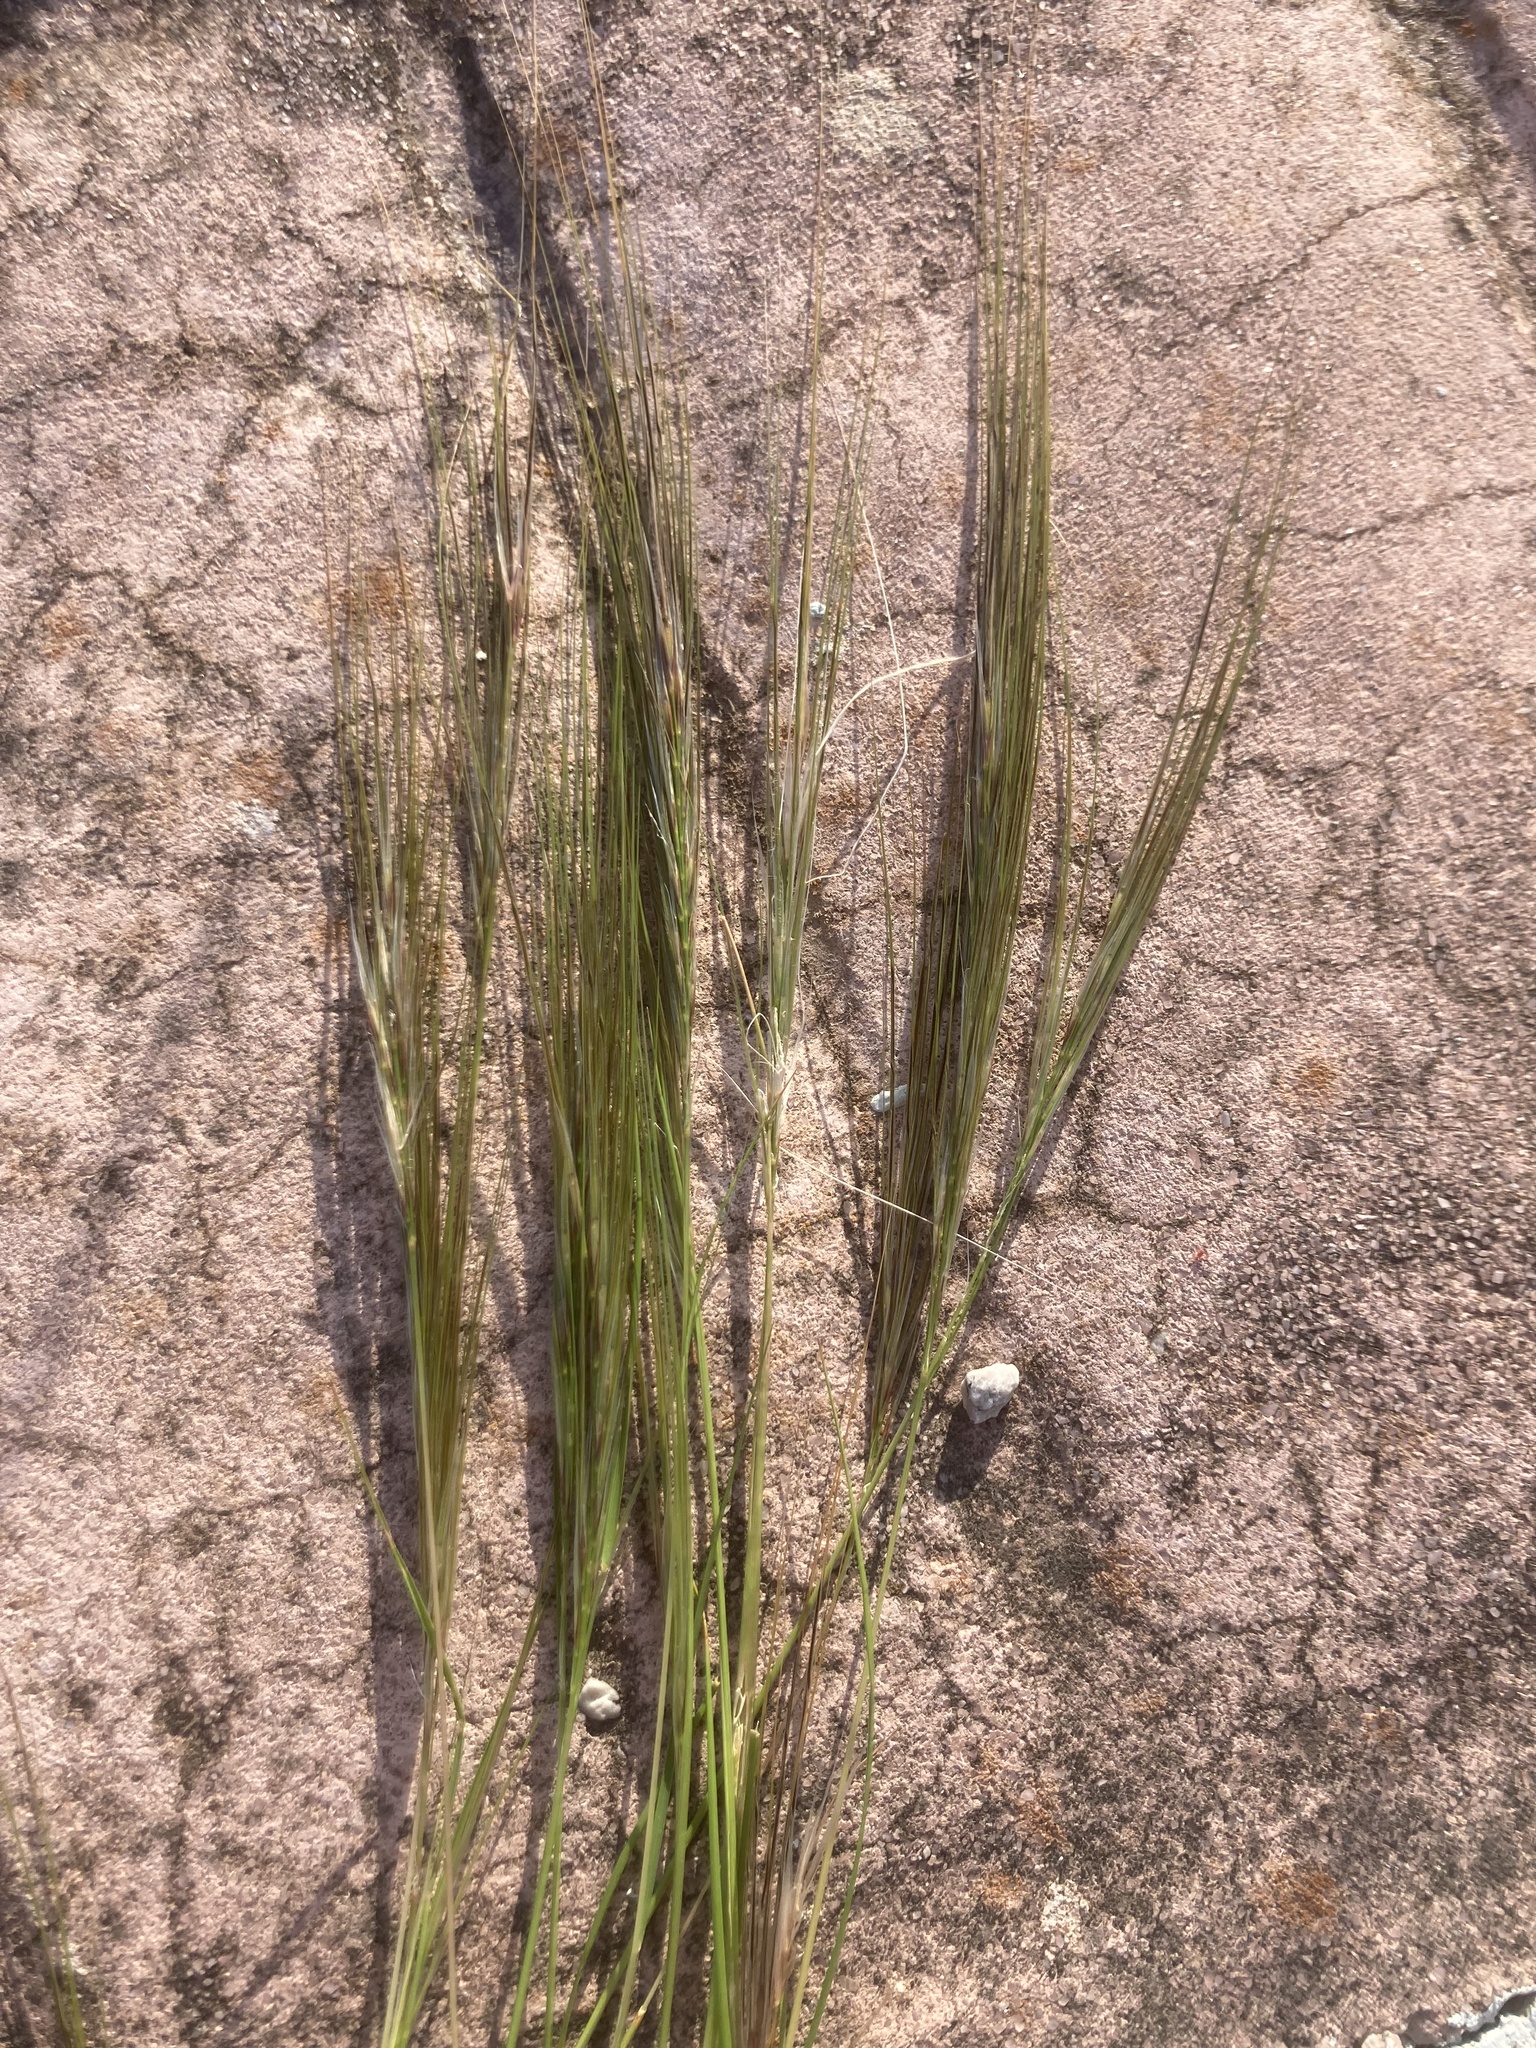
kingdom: Plantae
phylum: Tracheophyta
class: Liliopsida
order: Poales
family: Poaceae
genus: Stipellula
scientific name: Stipellula capensis
